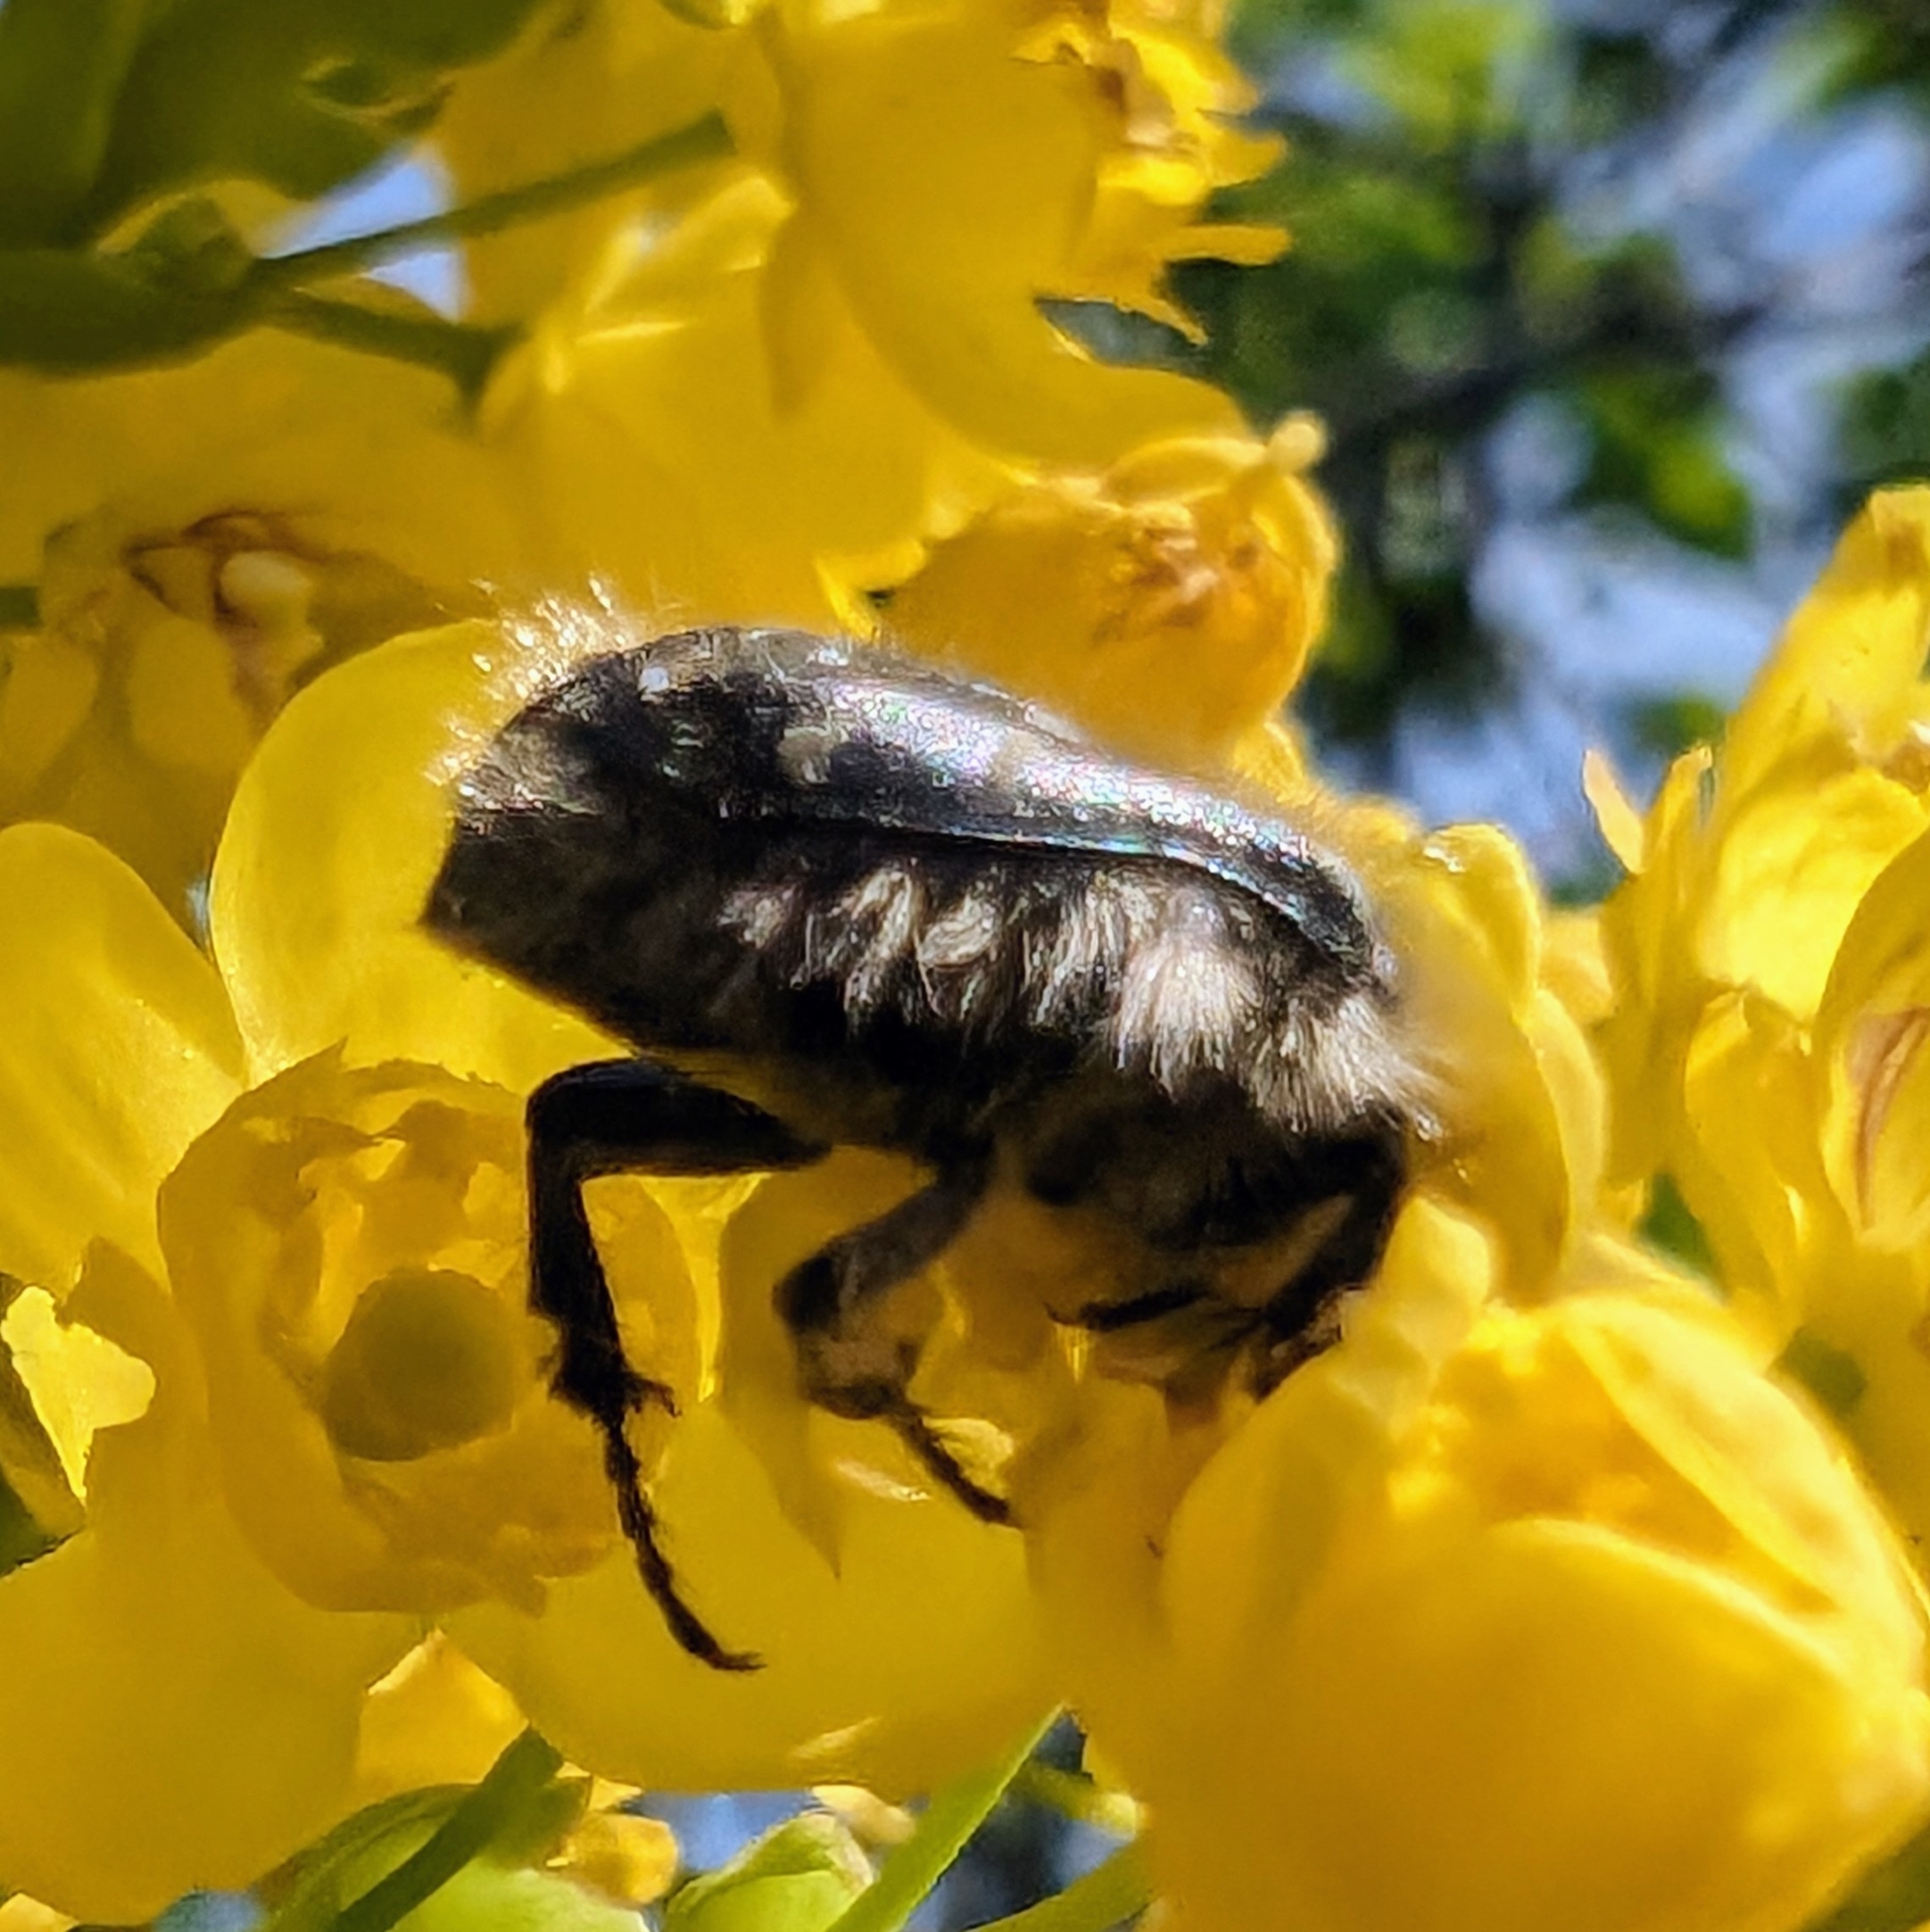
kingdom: Animalia
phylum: Arthropoda
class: Insecta
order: Coleoptera
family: Scarabaeidae
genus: Tropinota
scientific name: Tropinota hirta
